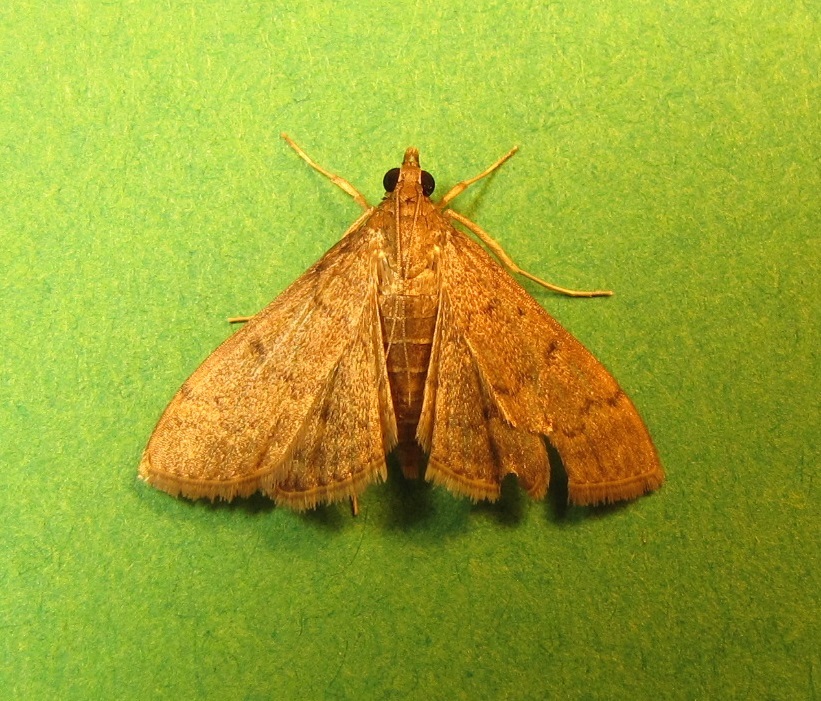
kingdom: Animalia
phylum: Arthropoda
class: Insecta
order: Lepidoptera
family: Crambidae
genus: Herpetogramma
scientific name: Herpetogramma phaeopteralis
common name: Dusky herpetogramma moth
